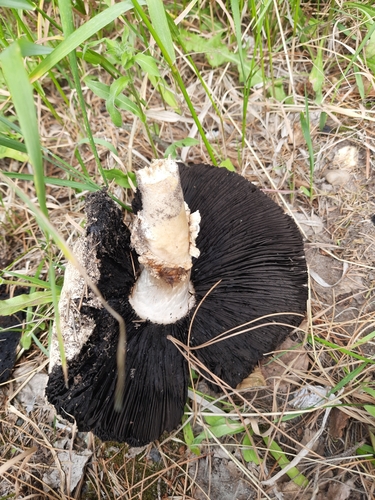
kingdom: Fungi
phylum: Basidiomycota
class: Agaricomycetes
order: Agaricales
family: Agaricaceae
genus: Agaricus
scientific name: Agaricus
